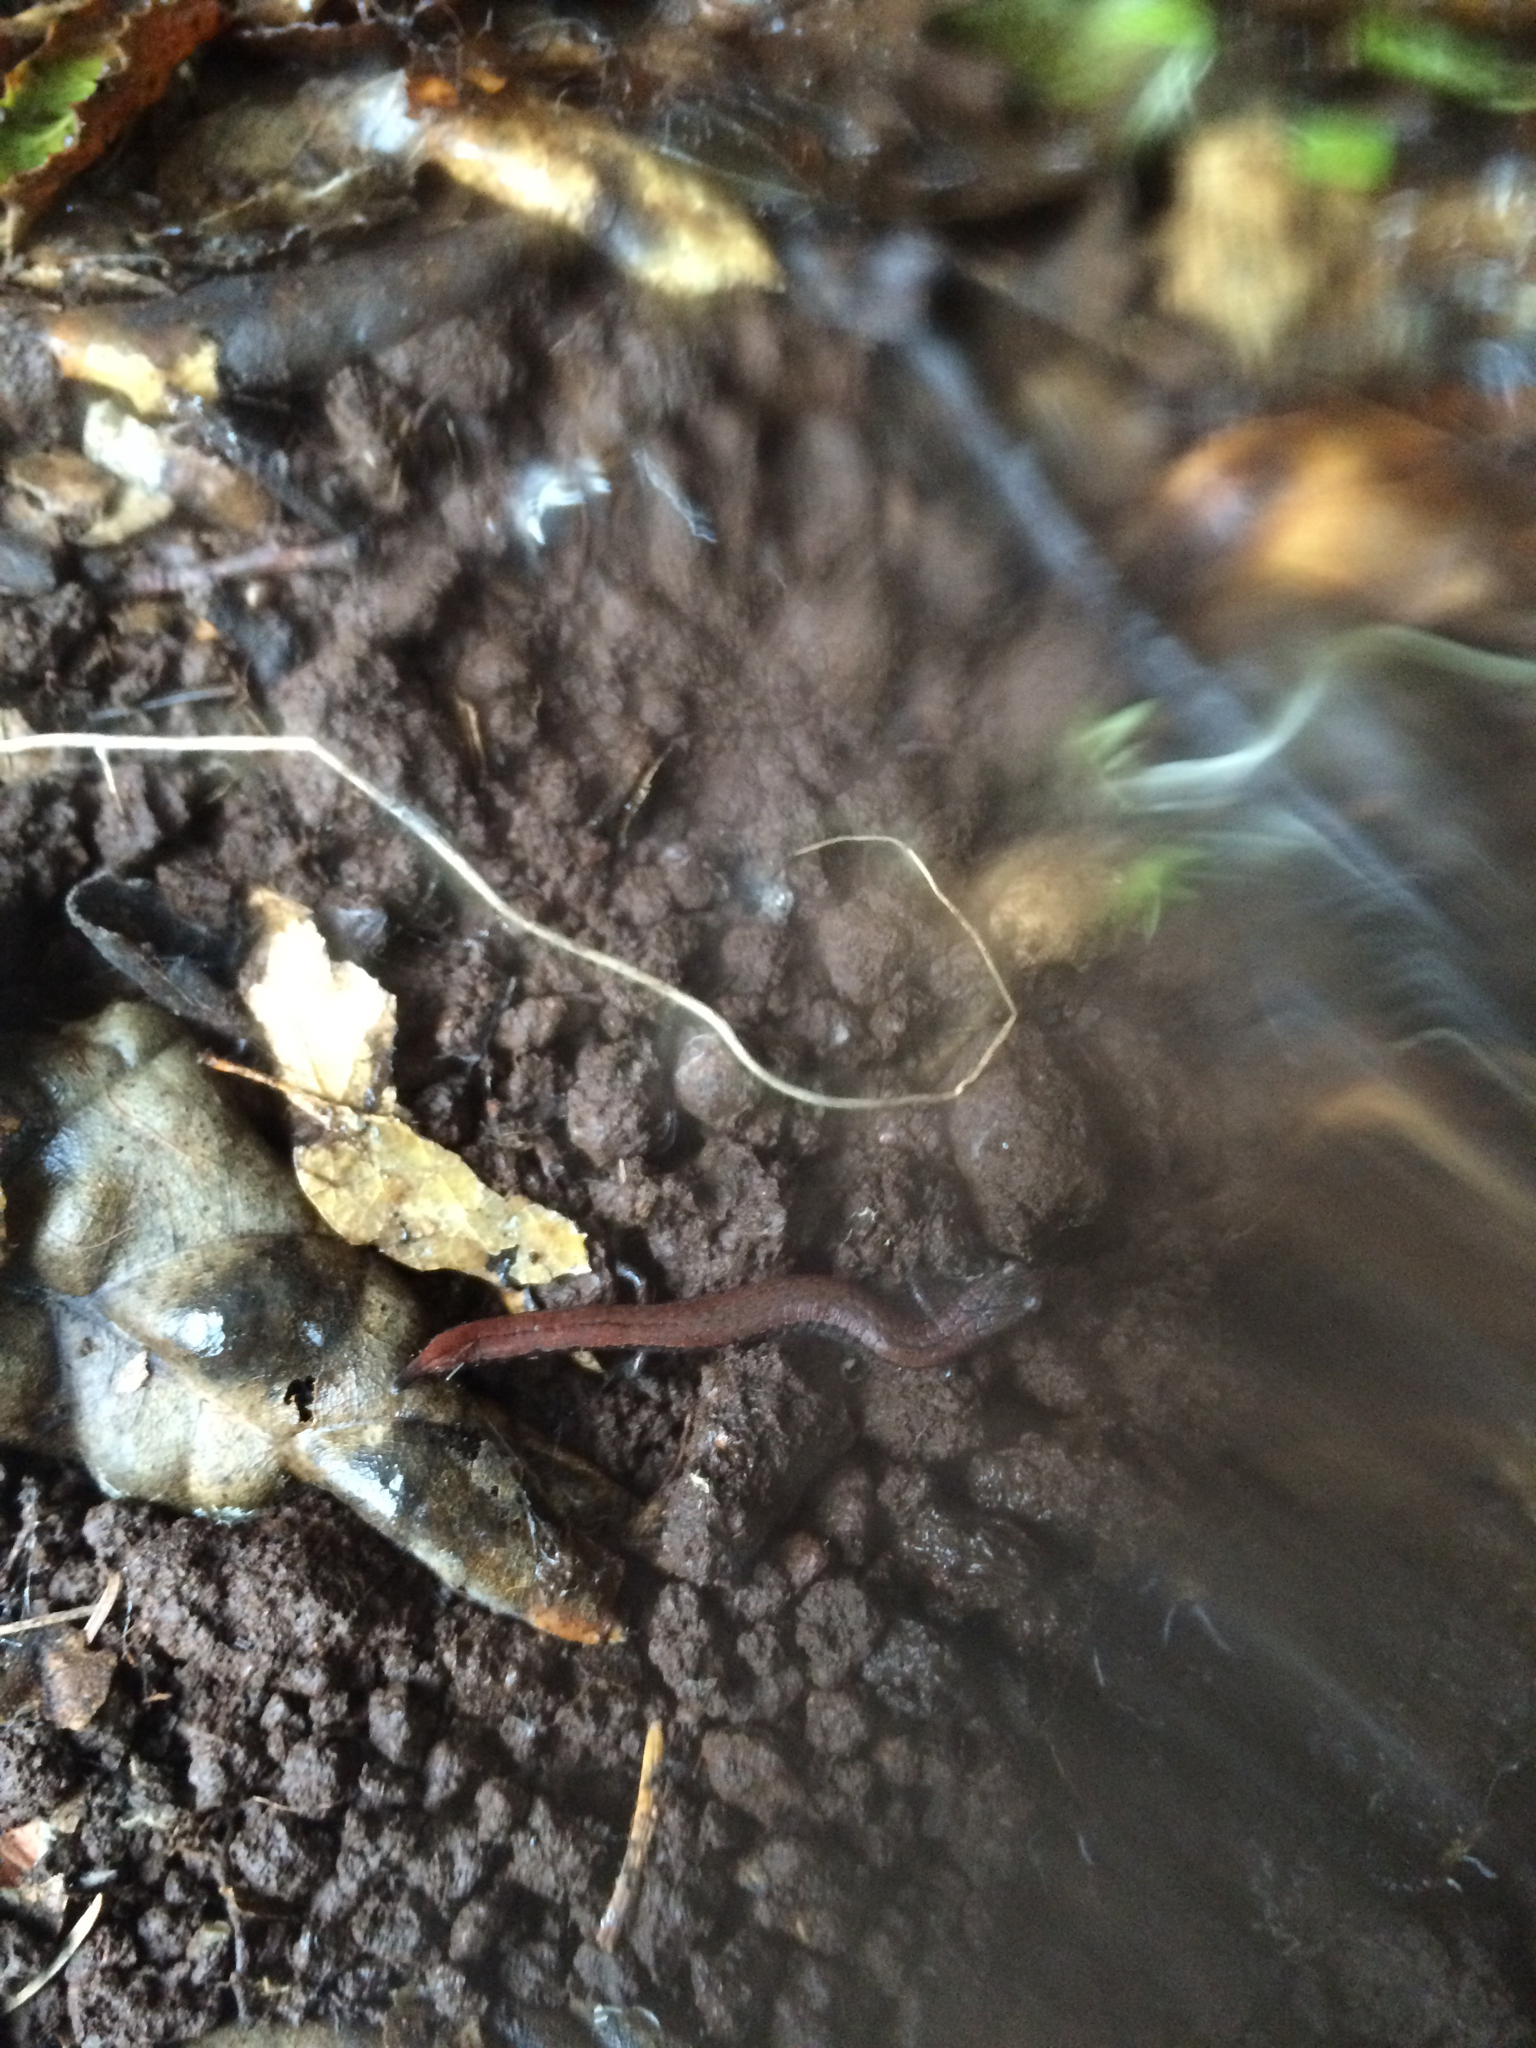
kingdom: Animalia
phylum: Chordata
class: Amphibia
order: Caudata
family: Plethodontidae
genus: Batrachoseps
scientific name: Batrachoseps attenuatus
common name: California slender salamander
